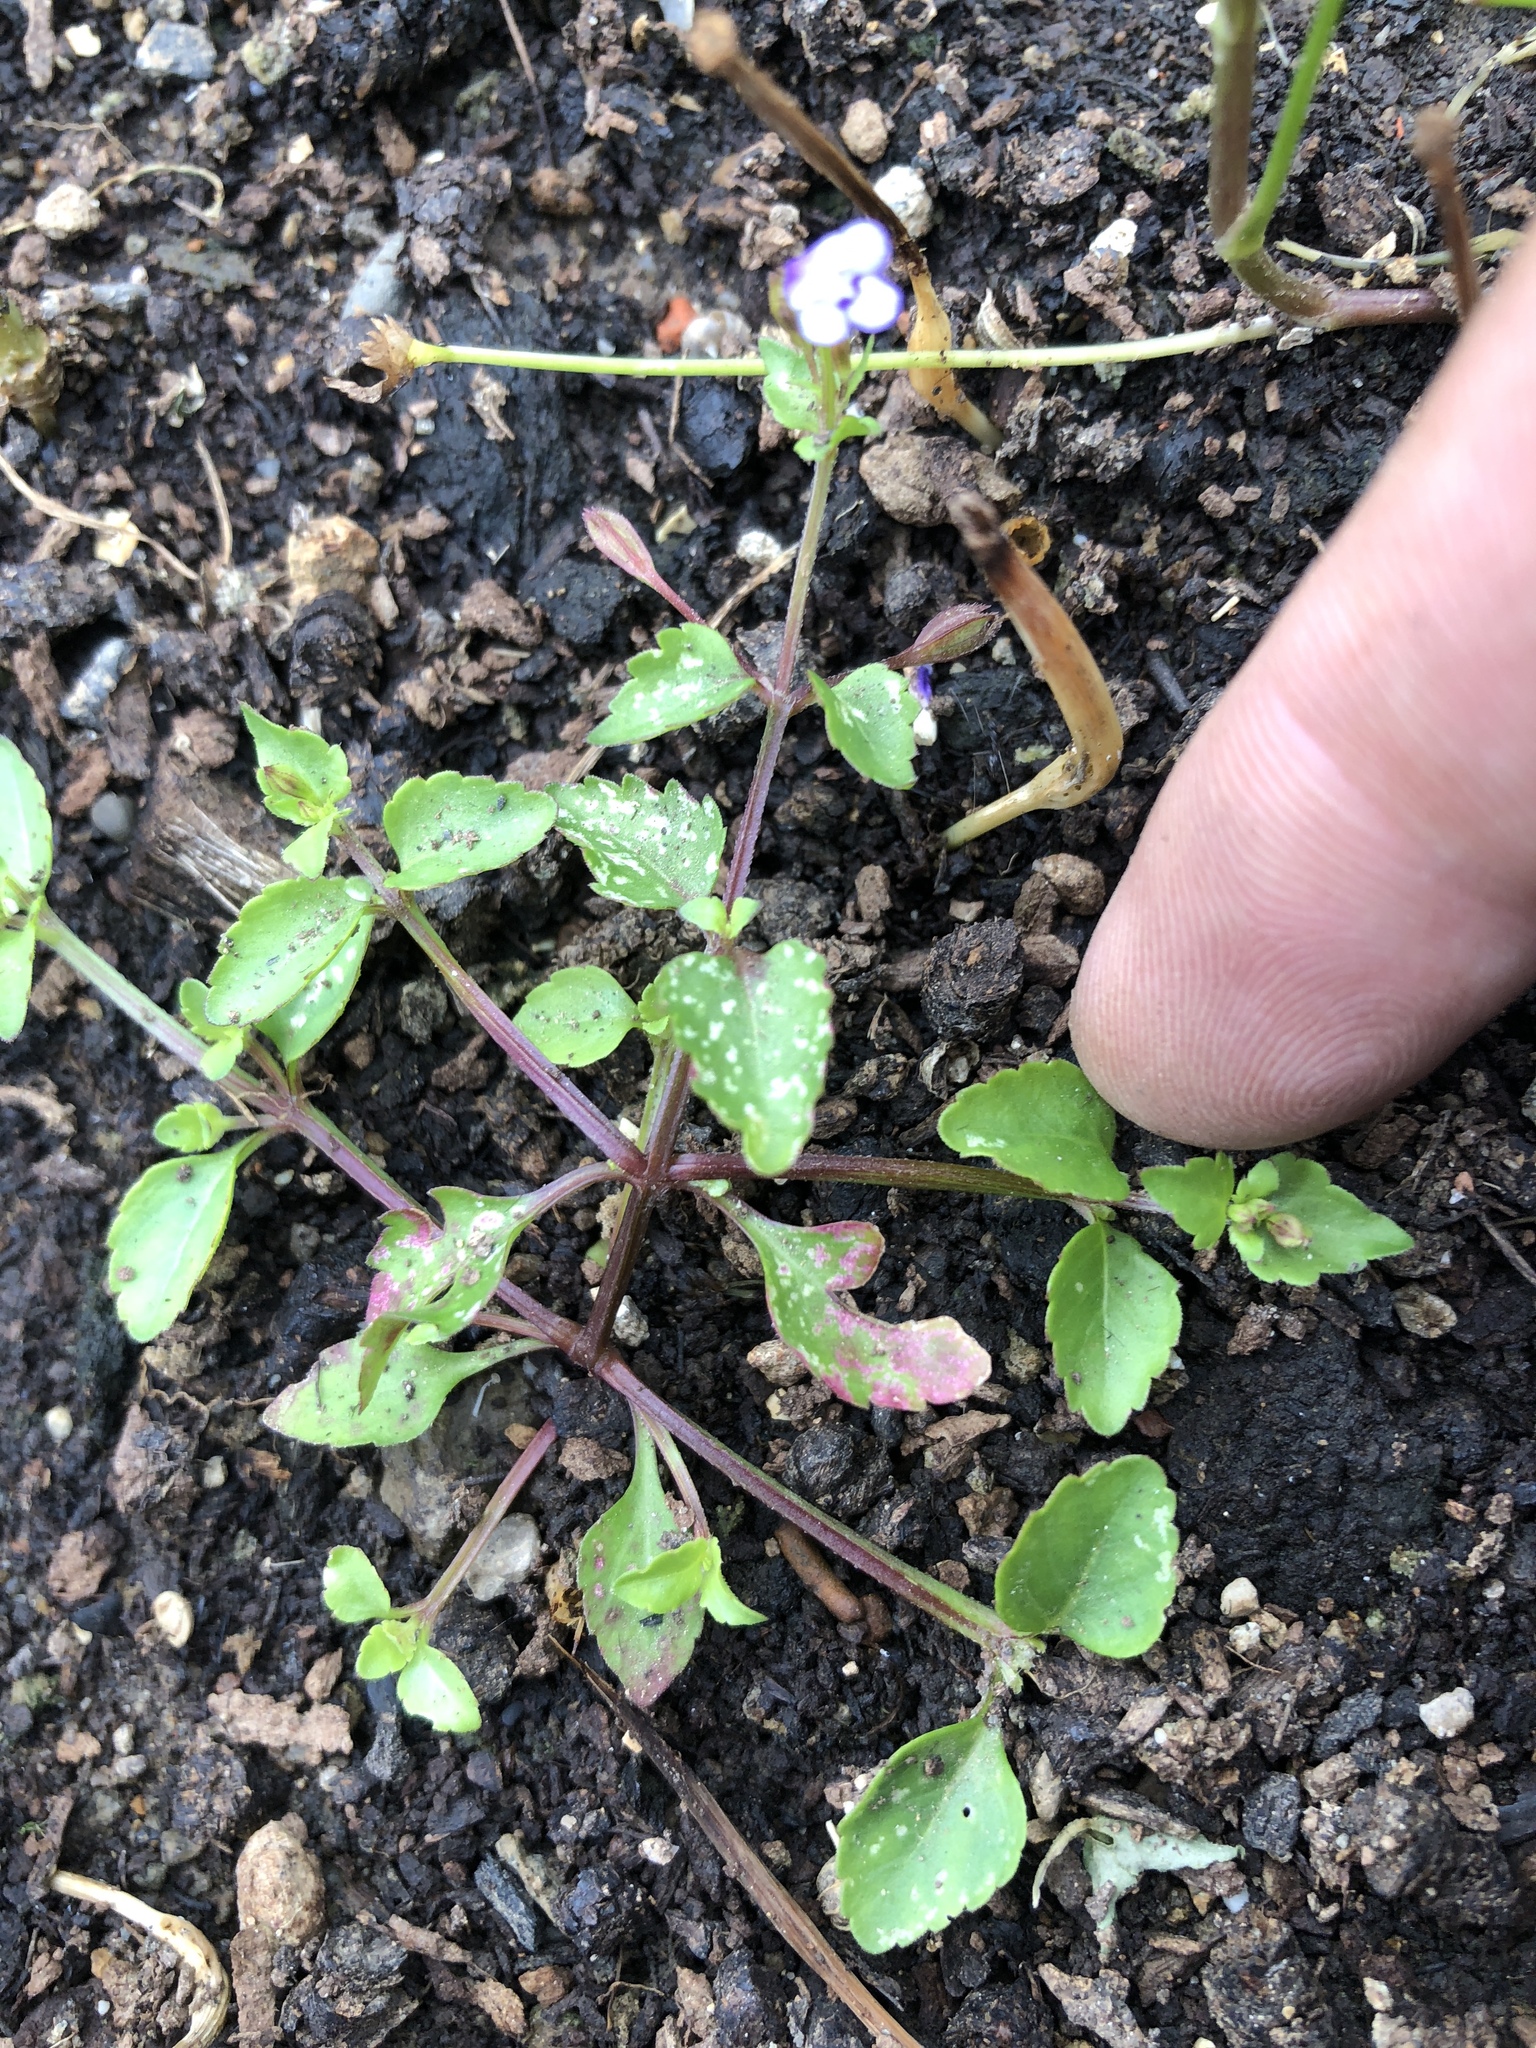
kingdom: Plantae
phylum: Tracheophyta
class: Magnoliopsida
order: Lamiales
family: Linderniaceae
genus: Torenia
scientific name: Torenia crustacea
